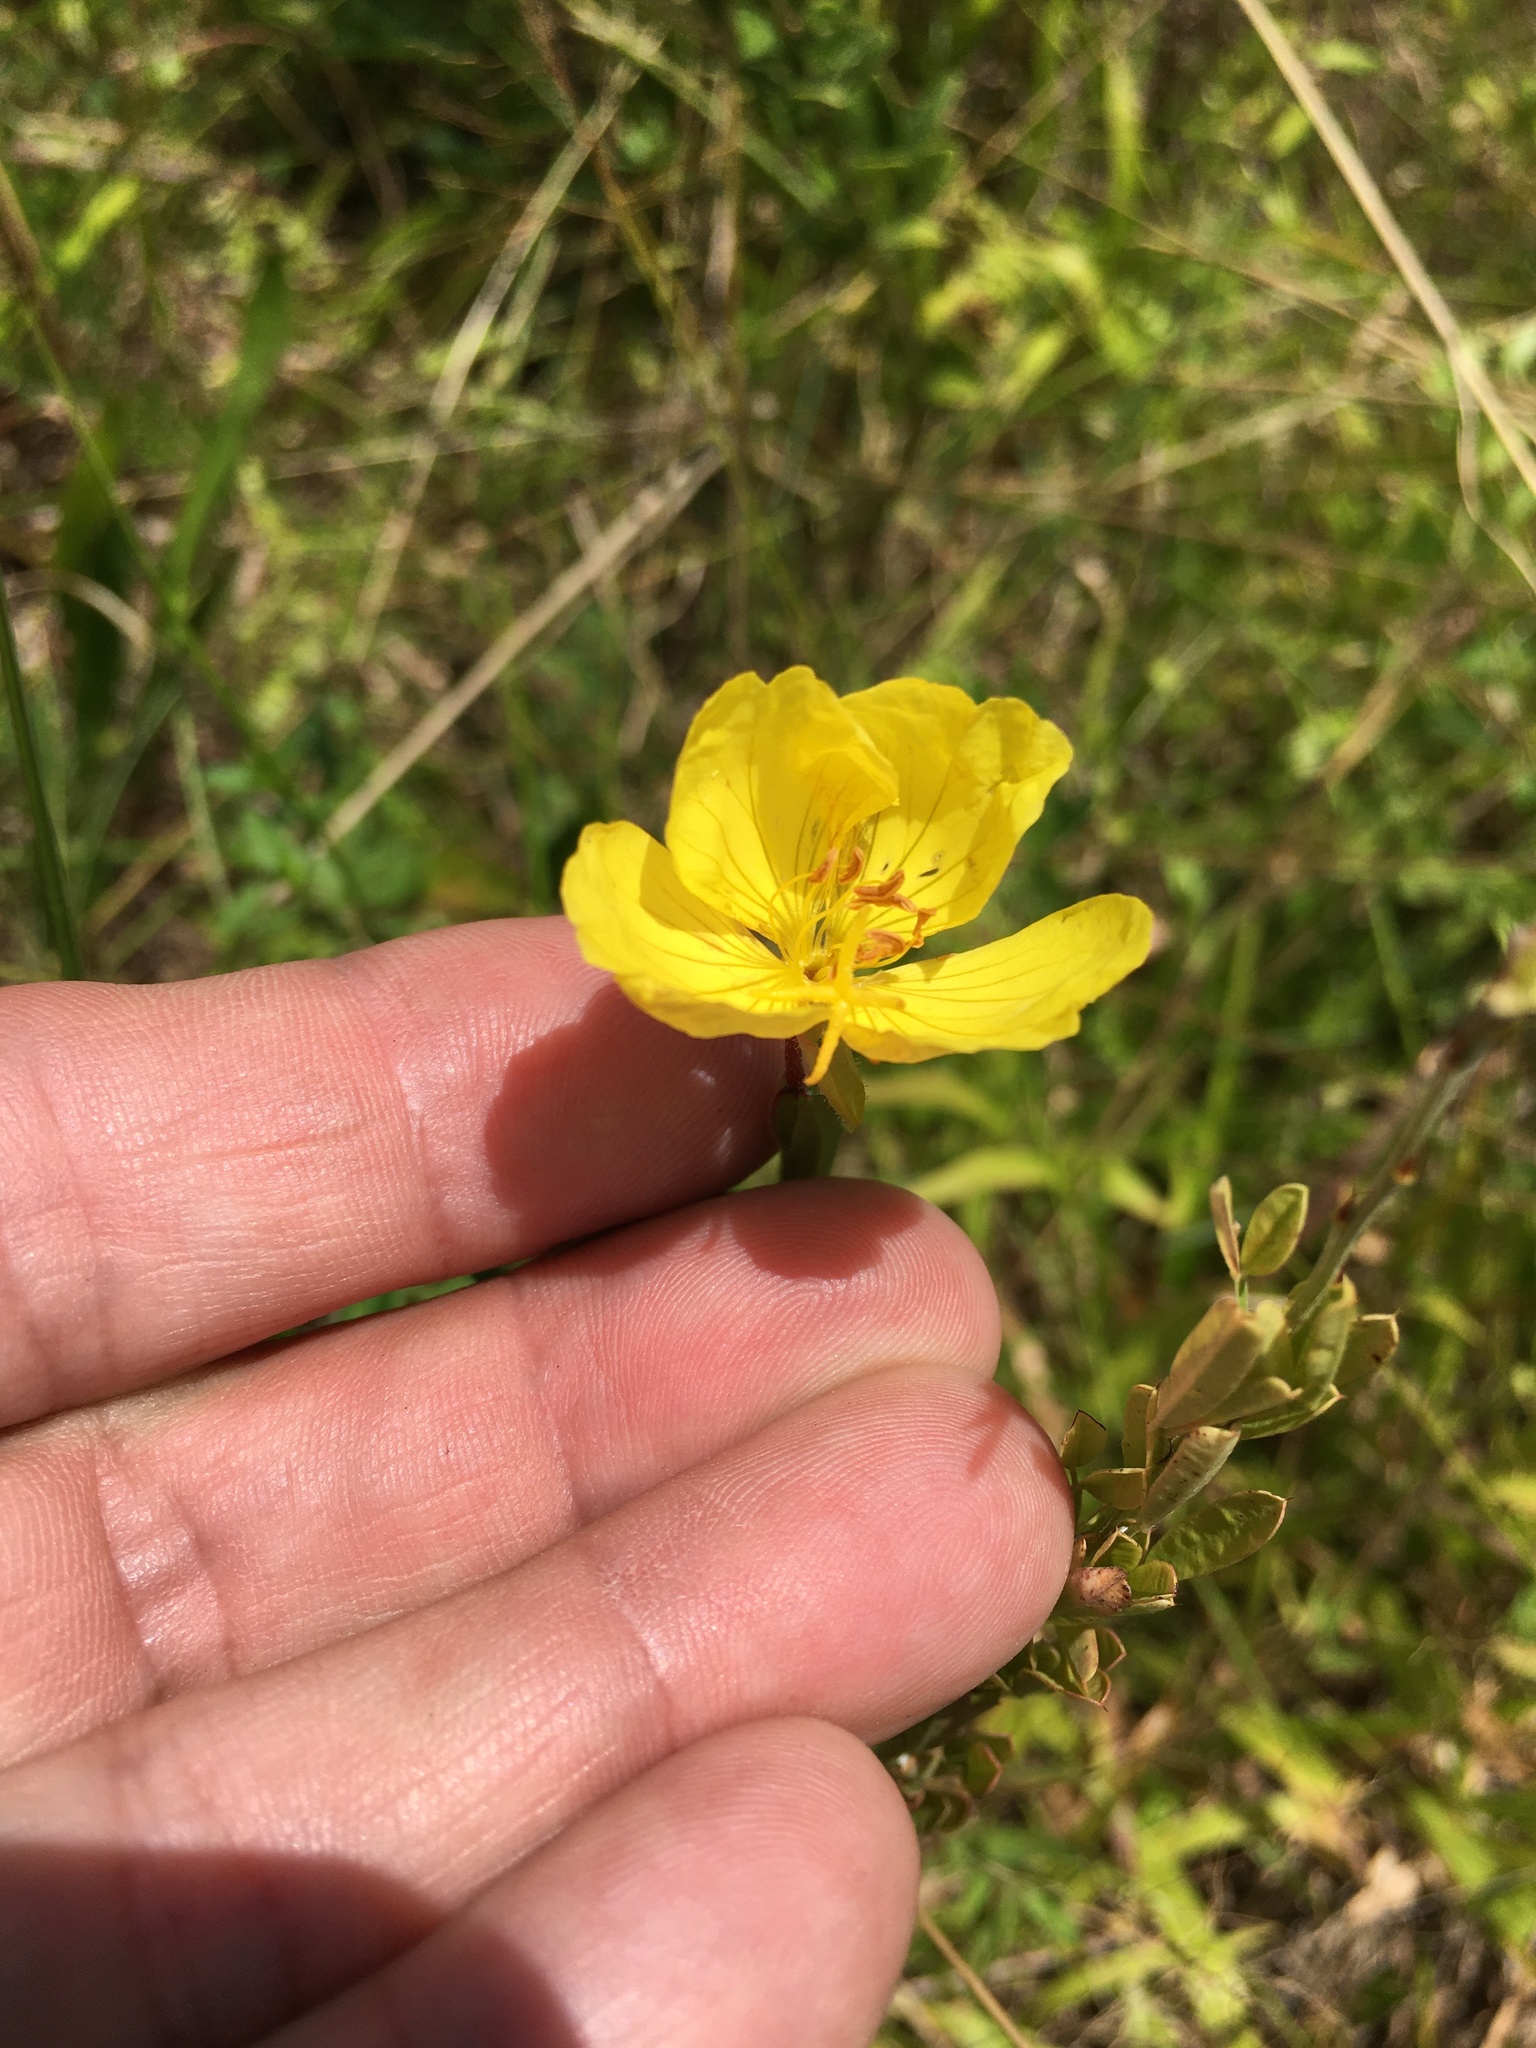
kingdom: Plantae
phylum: Tracheophyta
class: Magnoliopsida
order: Myrtales
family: Onagraceae
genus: Oenothera
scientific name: Oenothera fruticosa
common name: Southern sundrops
